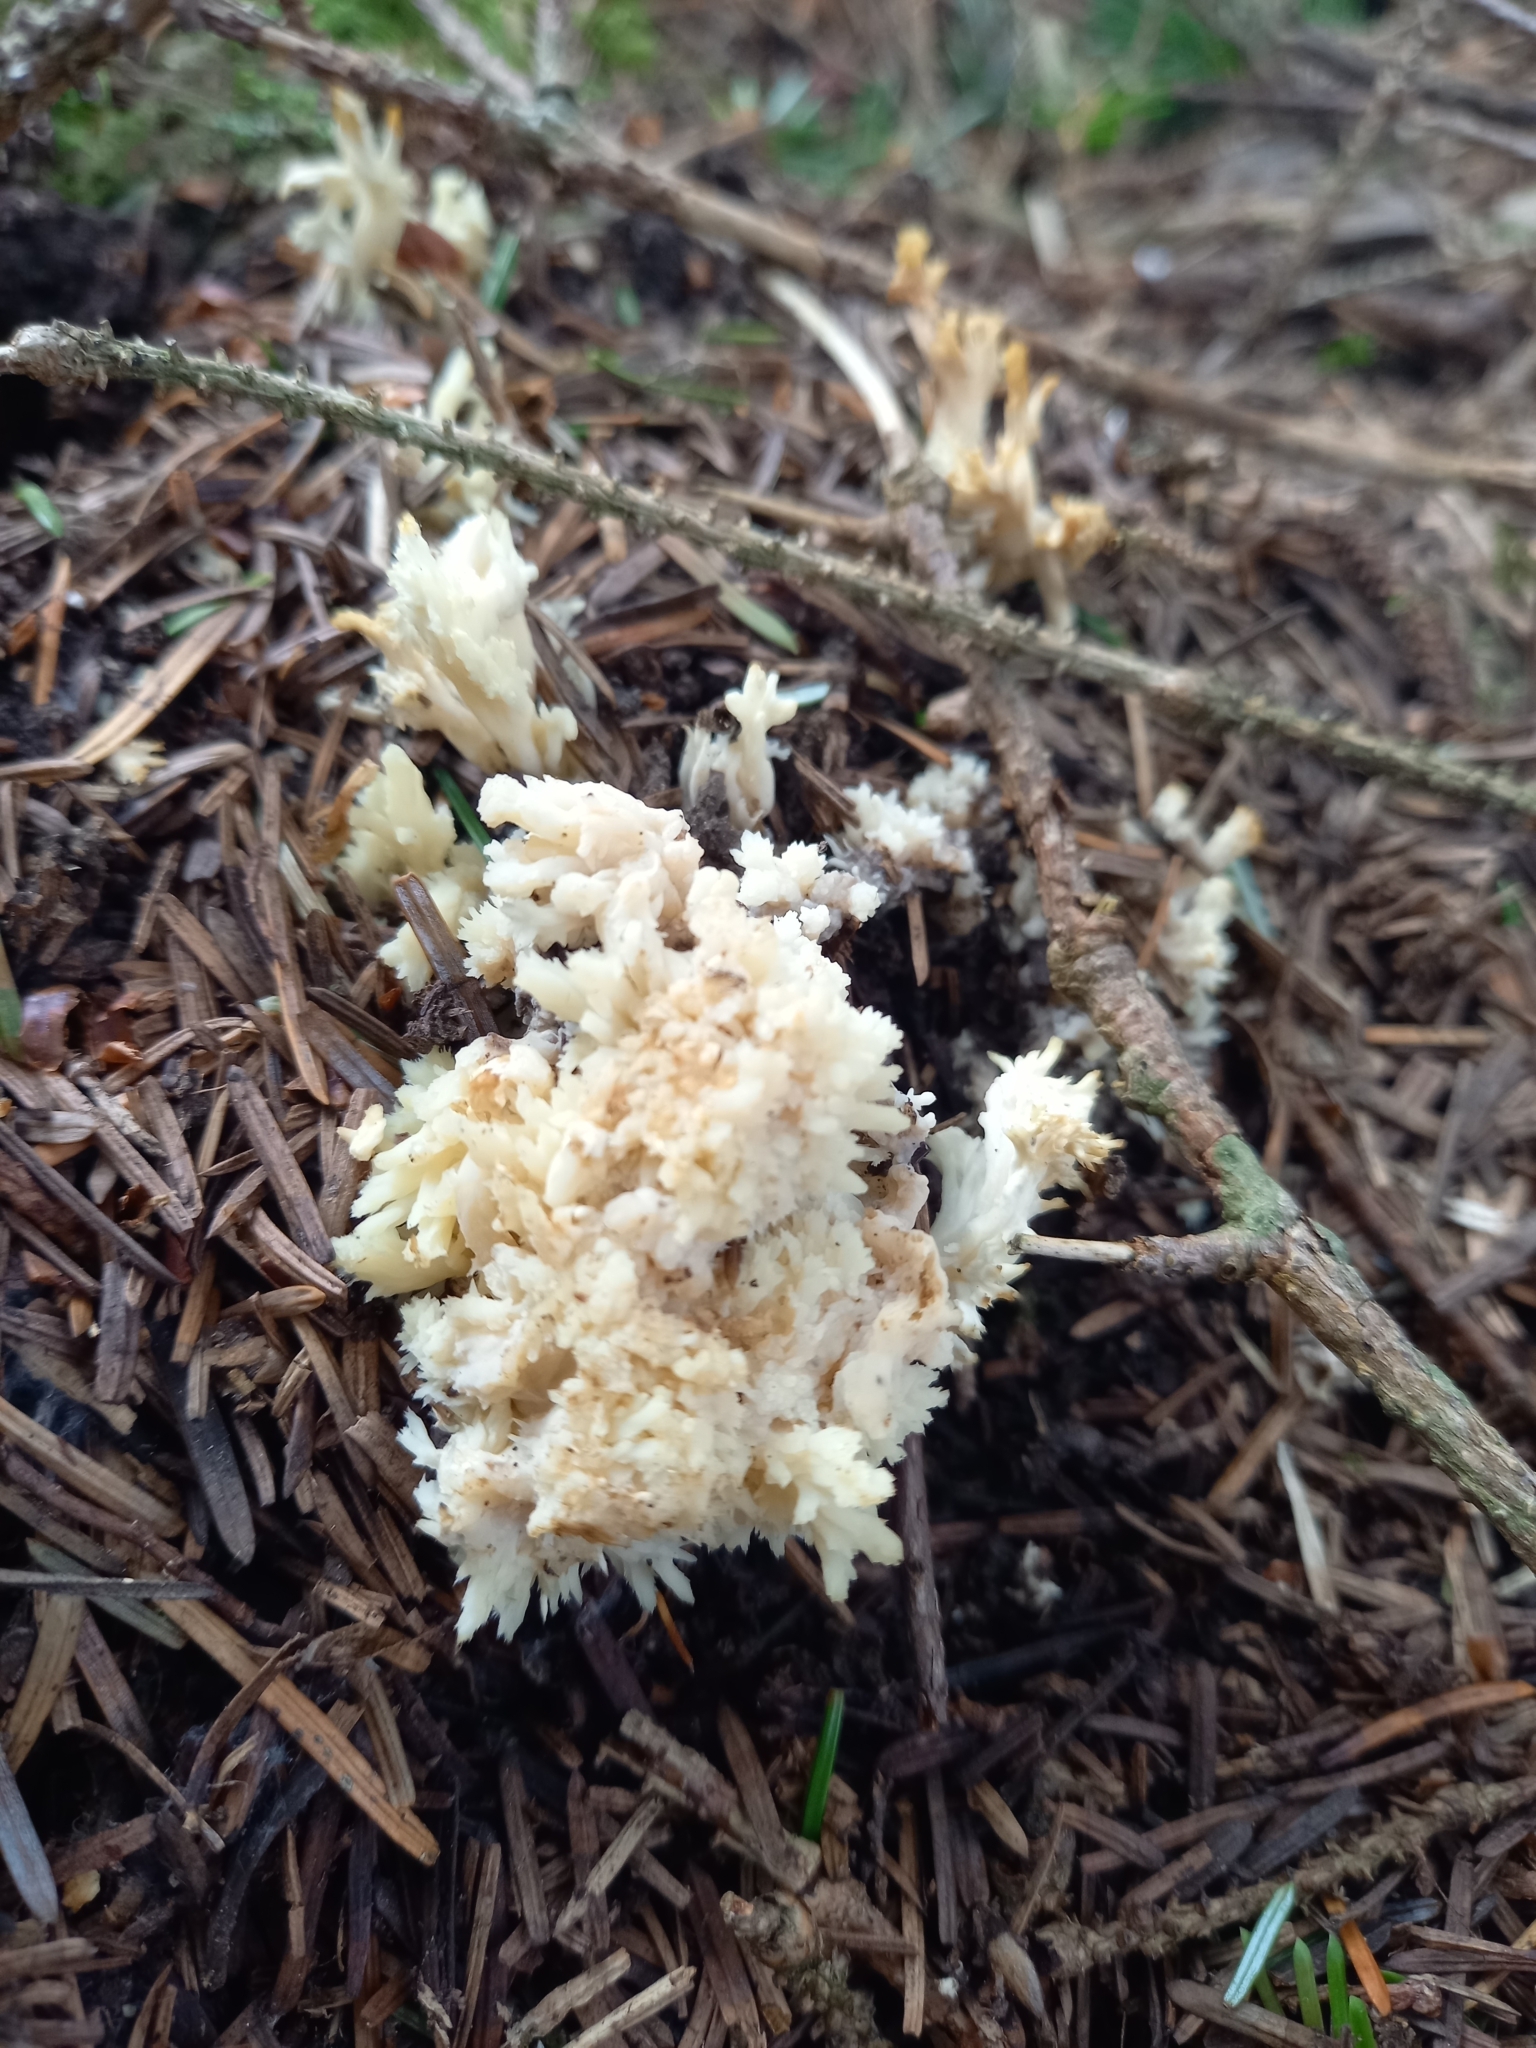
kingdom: Fungi
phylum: Basidiomycota
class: Agaricomycetes
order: Cantharellales
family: Hydnaceae
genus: Clavulina
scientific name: Clavulina coralloides
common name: Crested coral
